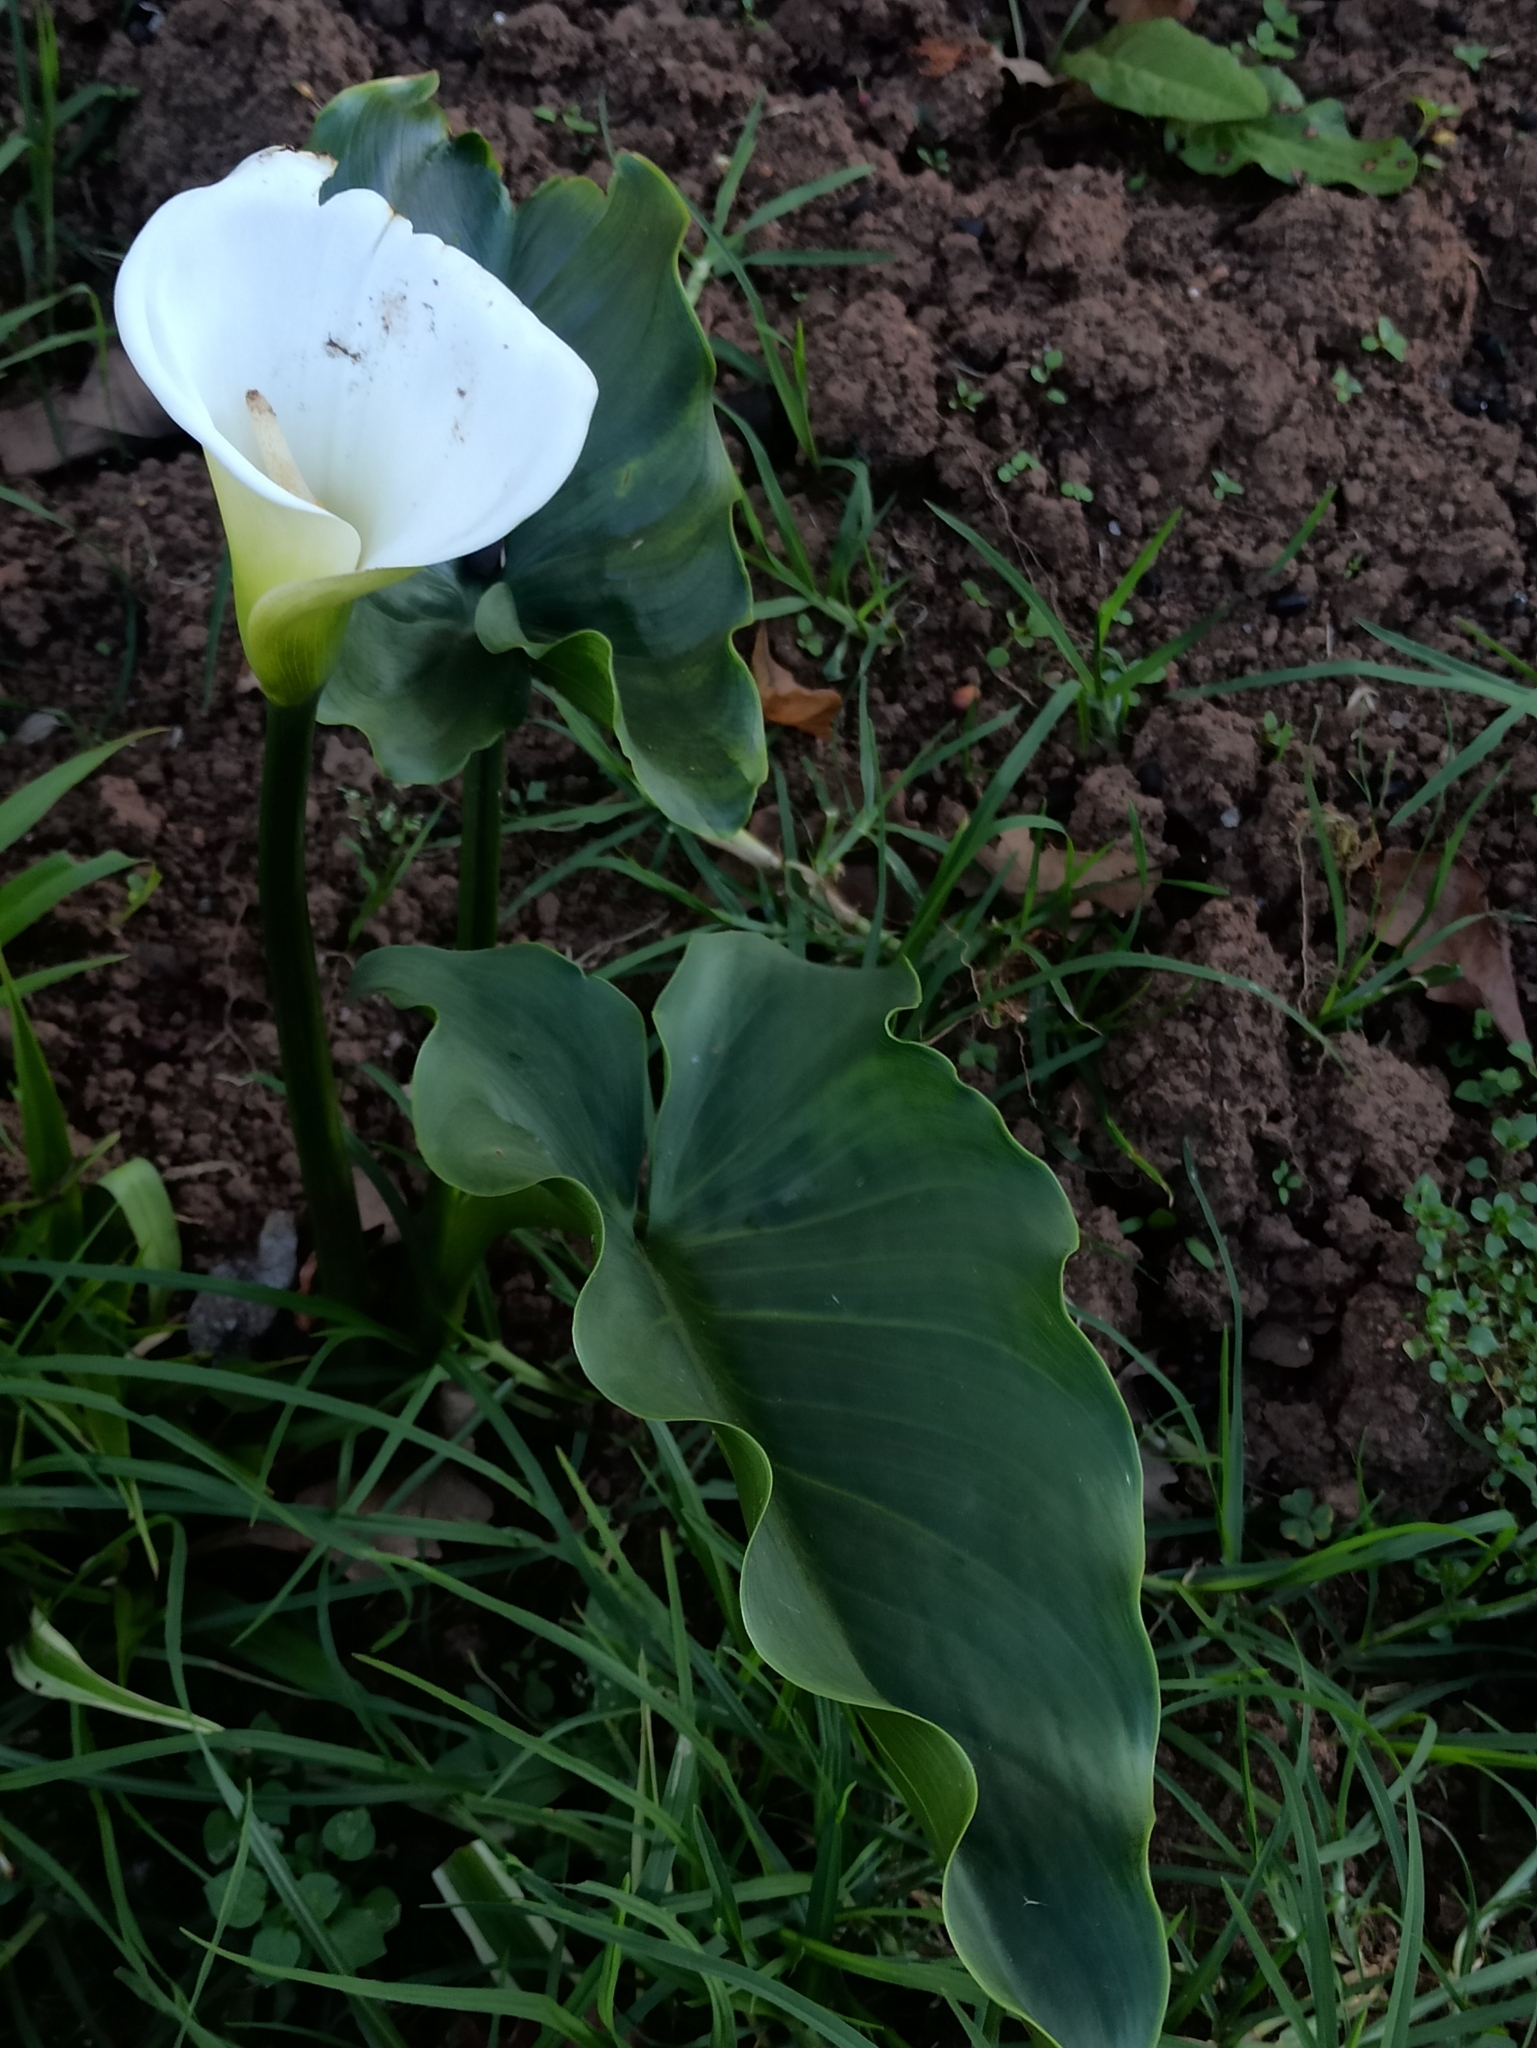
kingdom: Plantae
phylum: Tracheophyta
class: Liliopsida
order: Alismatales
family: Araceae
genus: Zantedeschia
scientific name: Zantedeschia aethiopica
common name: Altar-lily
